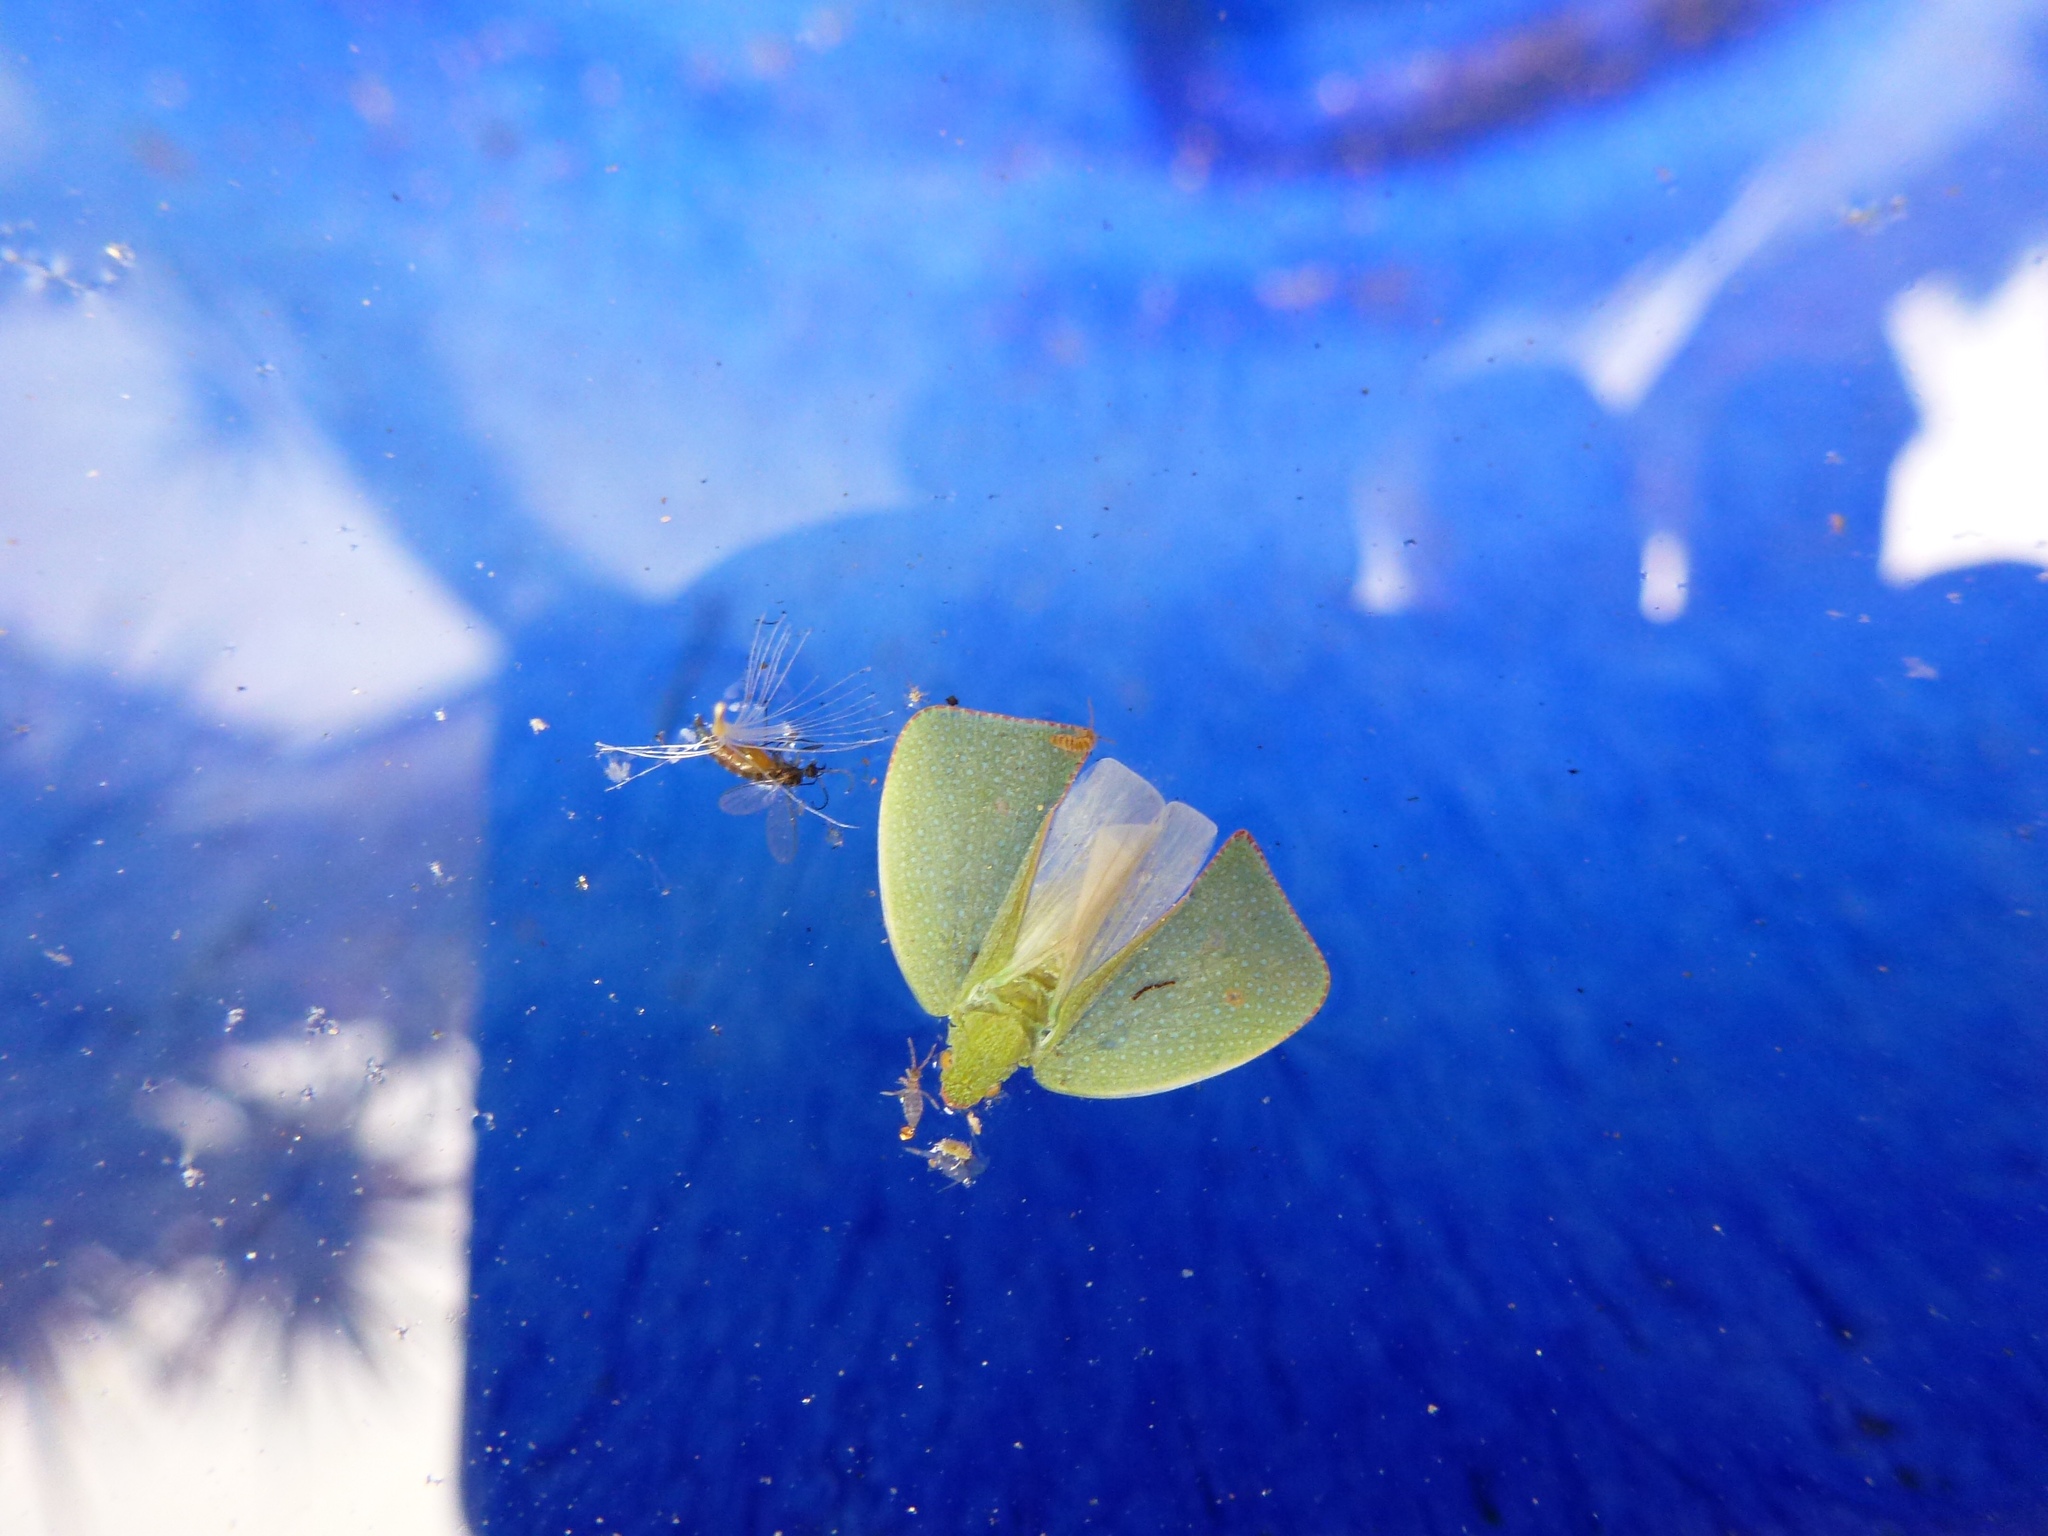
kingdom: Animalia
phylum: Arthropoda
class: Insecta
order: Hemiptera
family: Flatidae
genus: Siphanta
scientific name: Siphanta acuta
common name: Torpedo bug
